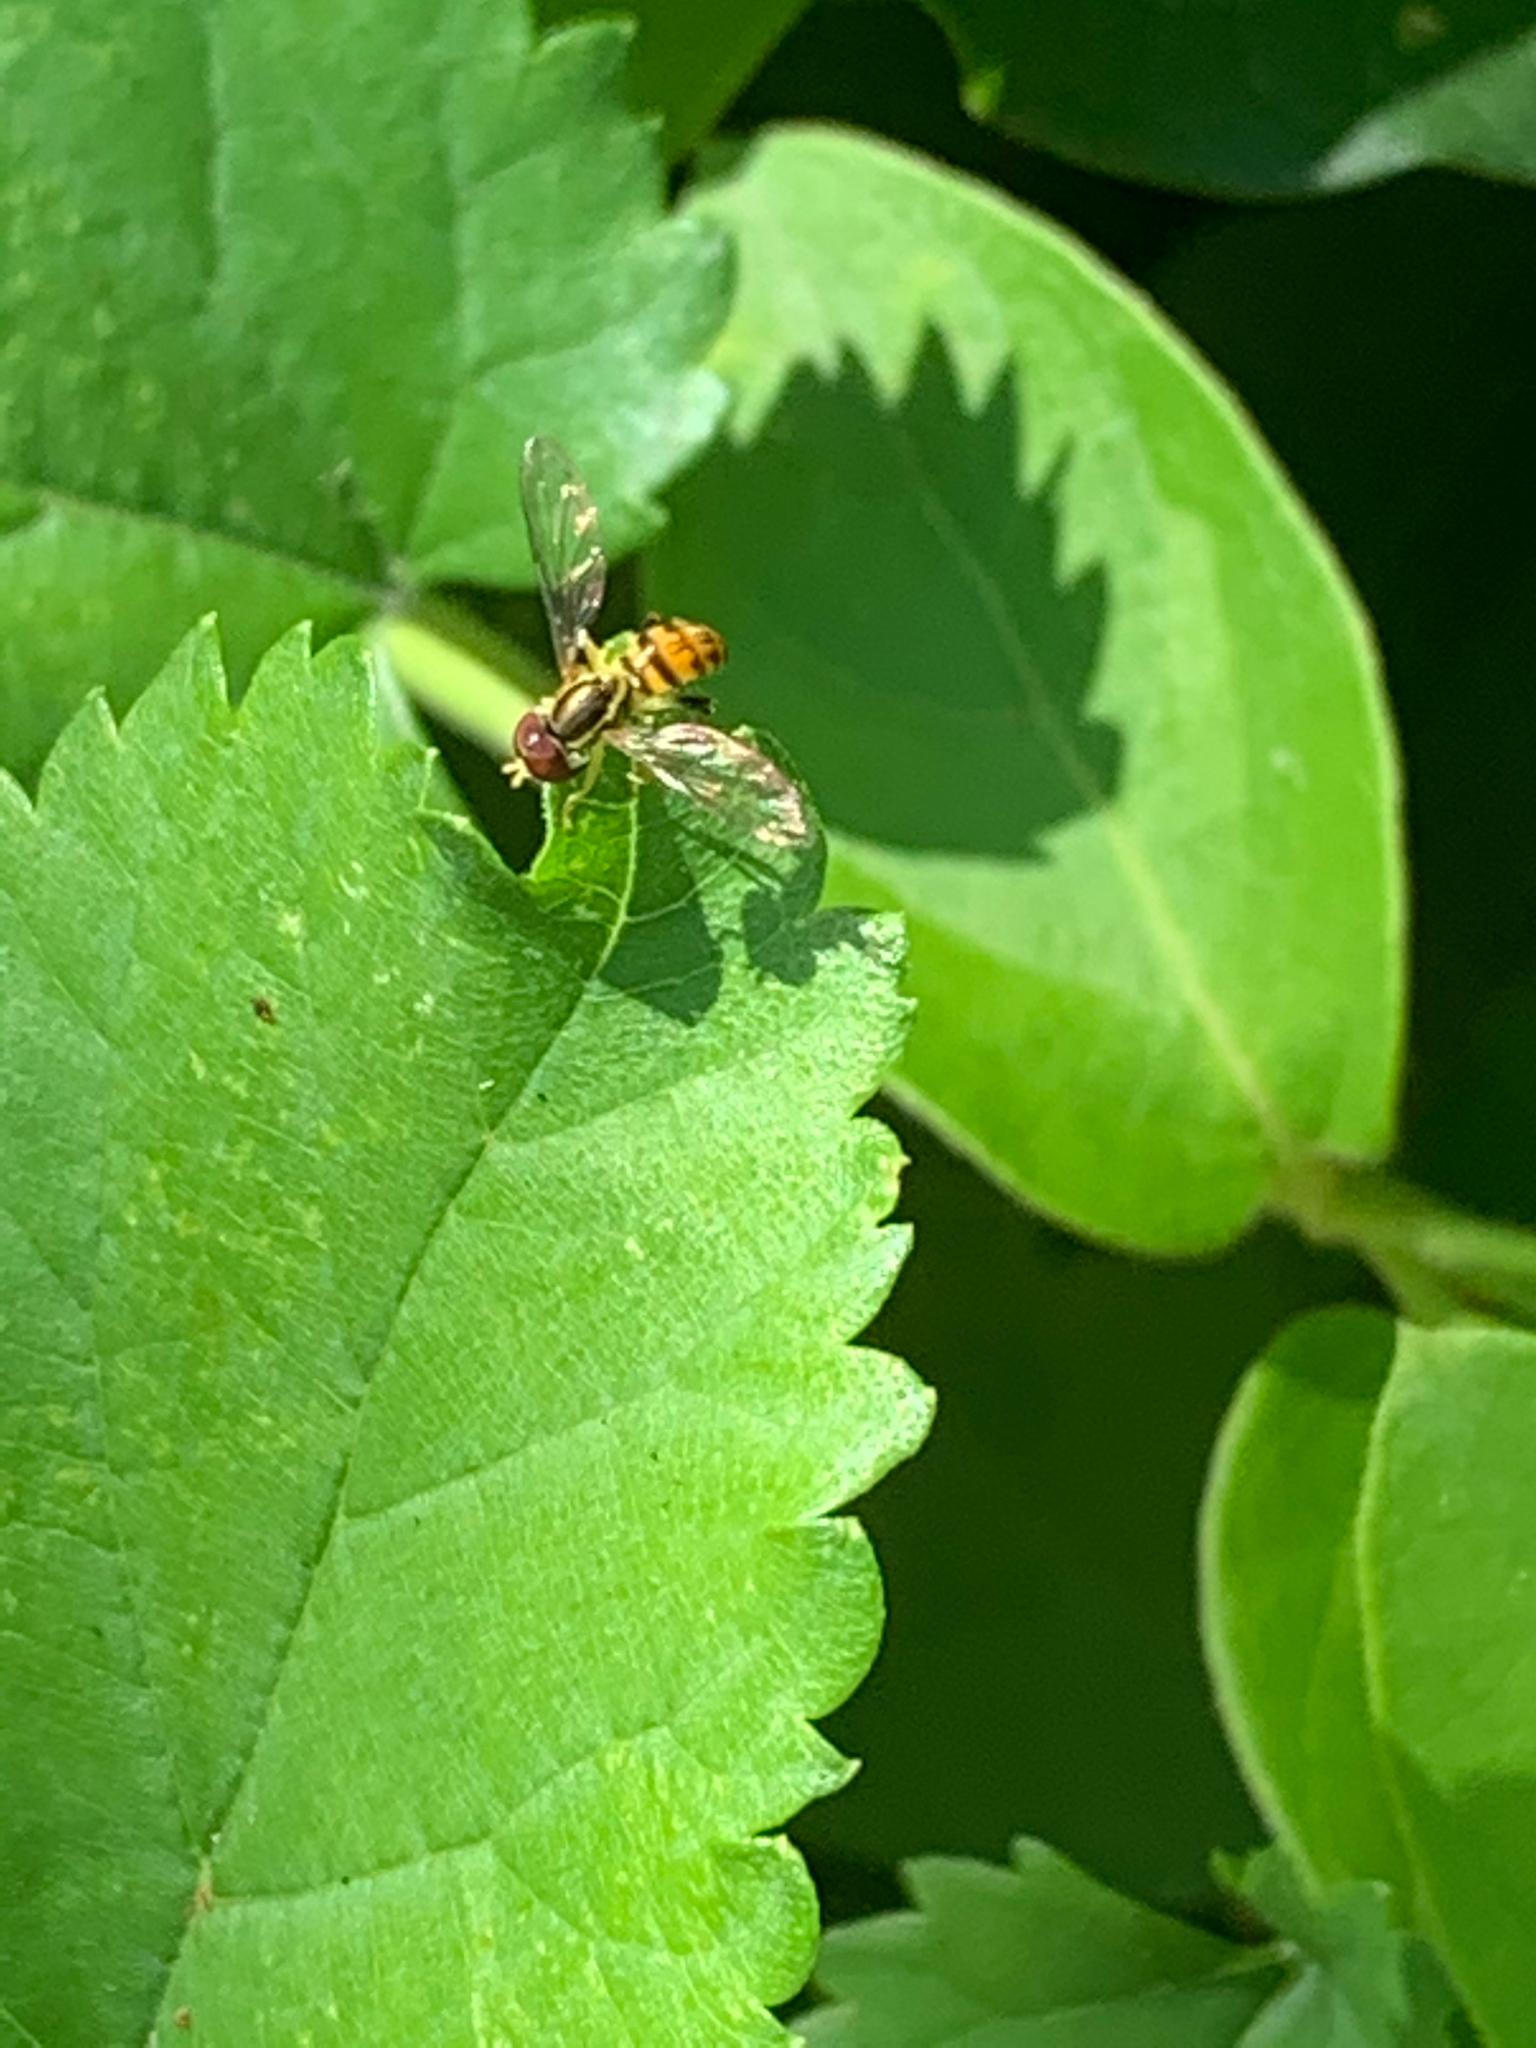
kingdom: Animalia
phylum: Arthropoda
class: Insecta
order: Diptera
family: Syrphidae
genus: Toxomerus
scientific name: Toxomerus geminatus
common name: Eastern calligrapher
